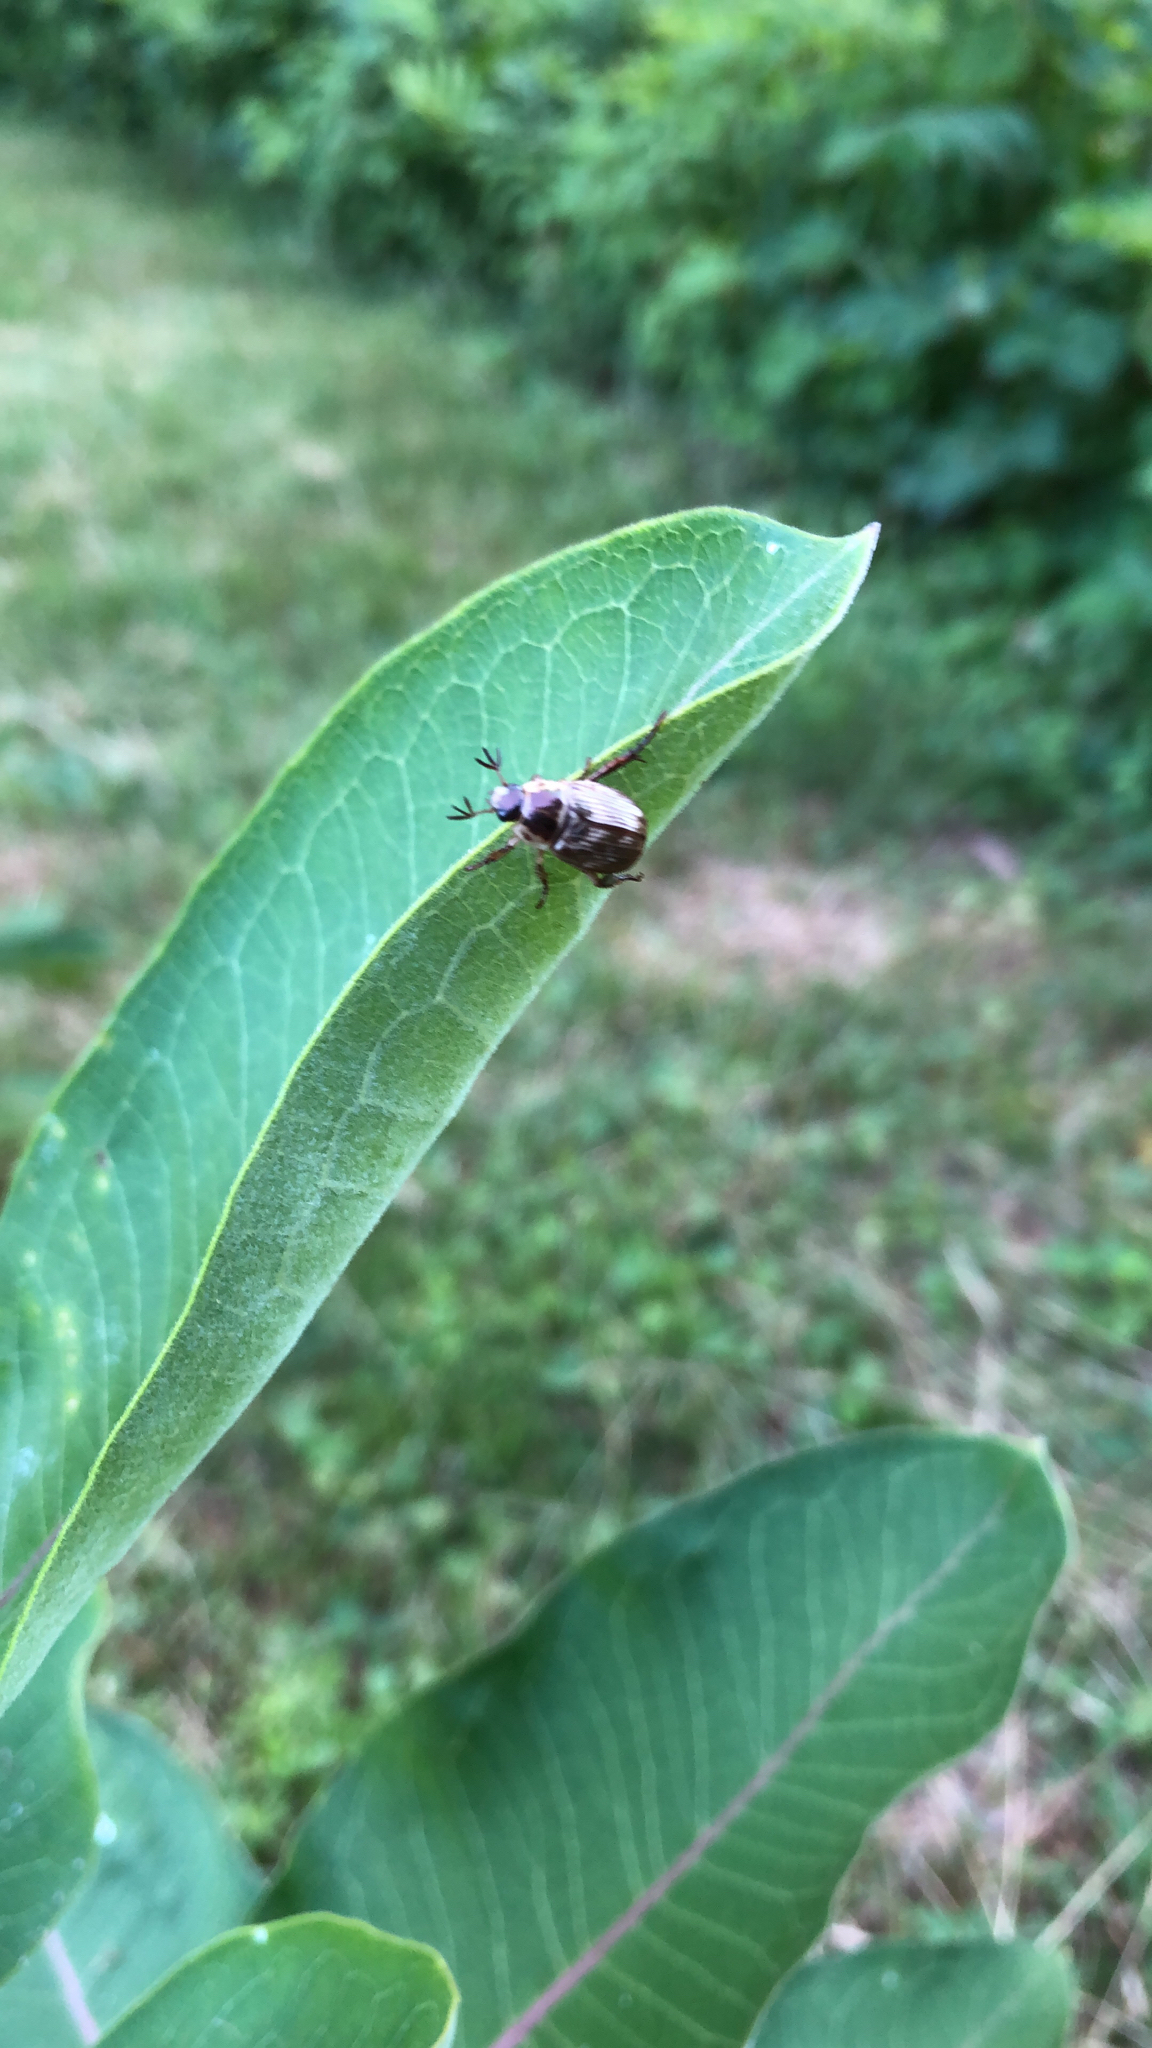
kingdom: Animalia
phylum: Arthropoda
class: Insecta
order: Coleoptera
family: Scarabaeidae
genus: Exomala
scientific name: Exomala orientalis
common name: Oriental beetle
